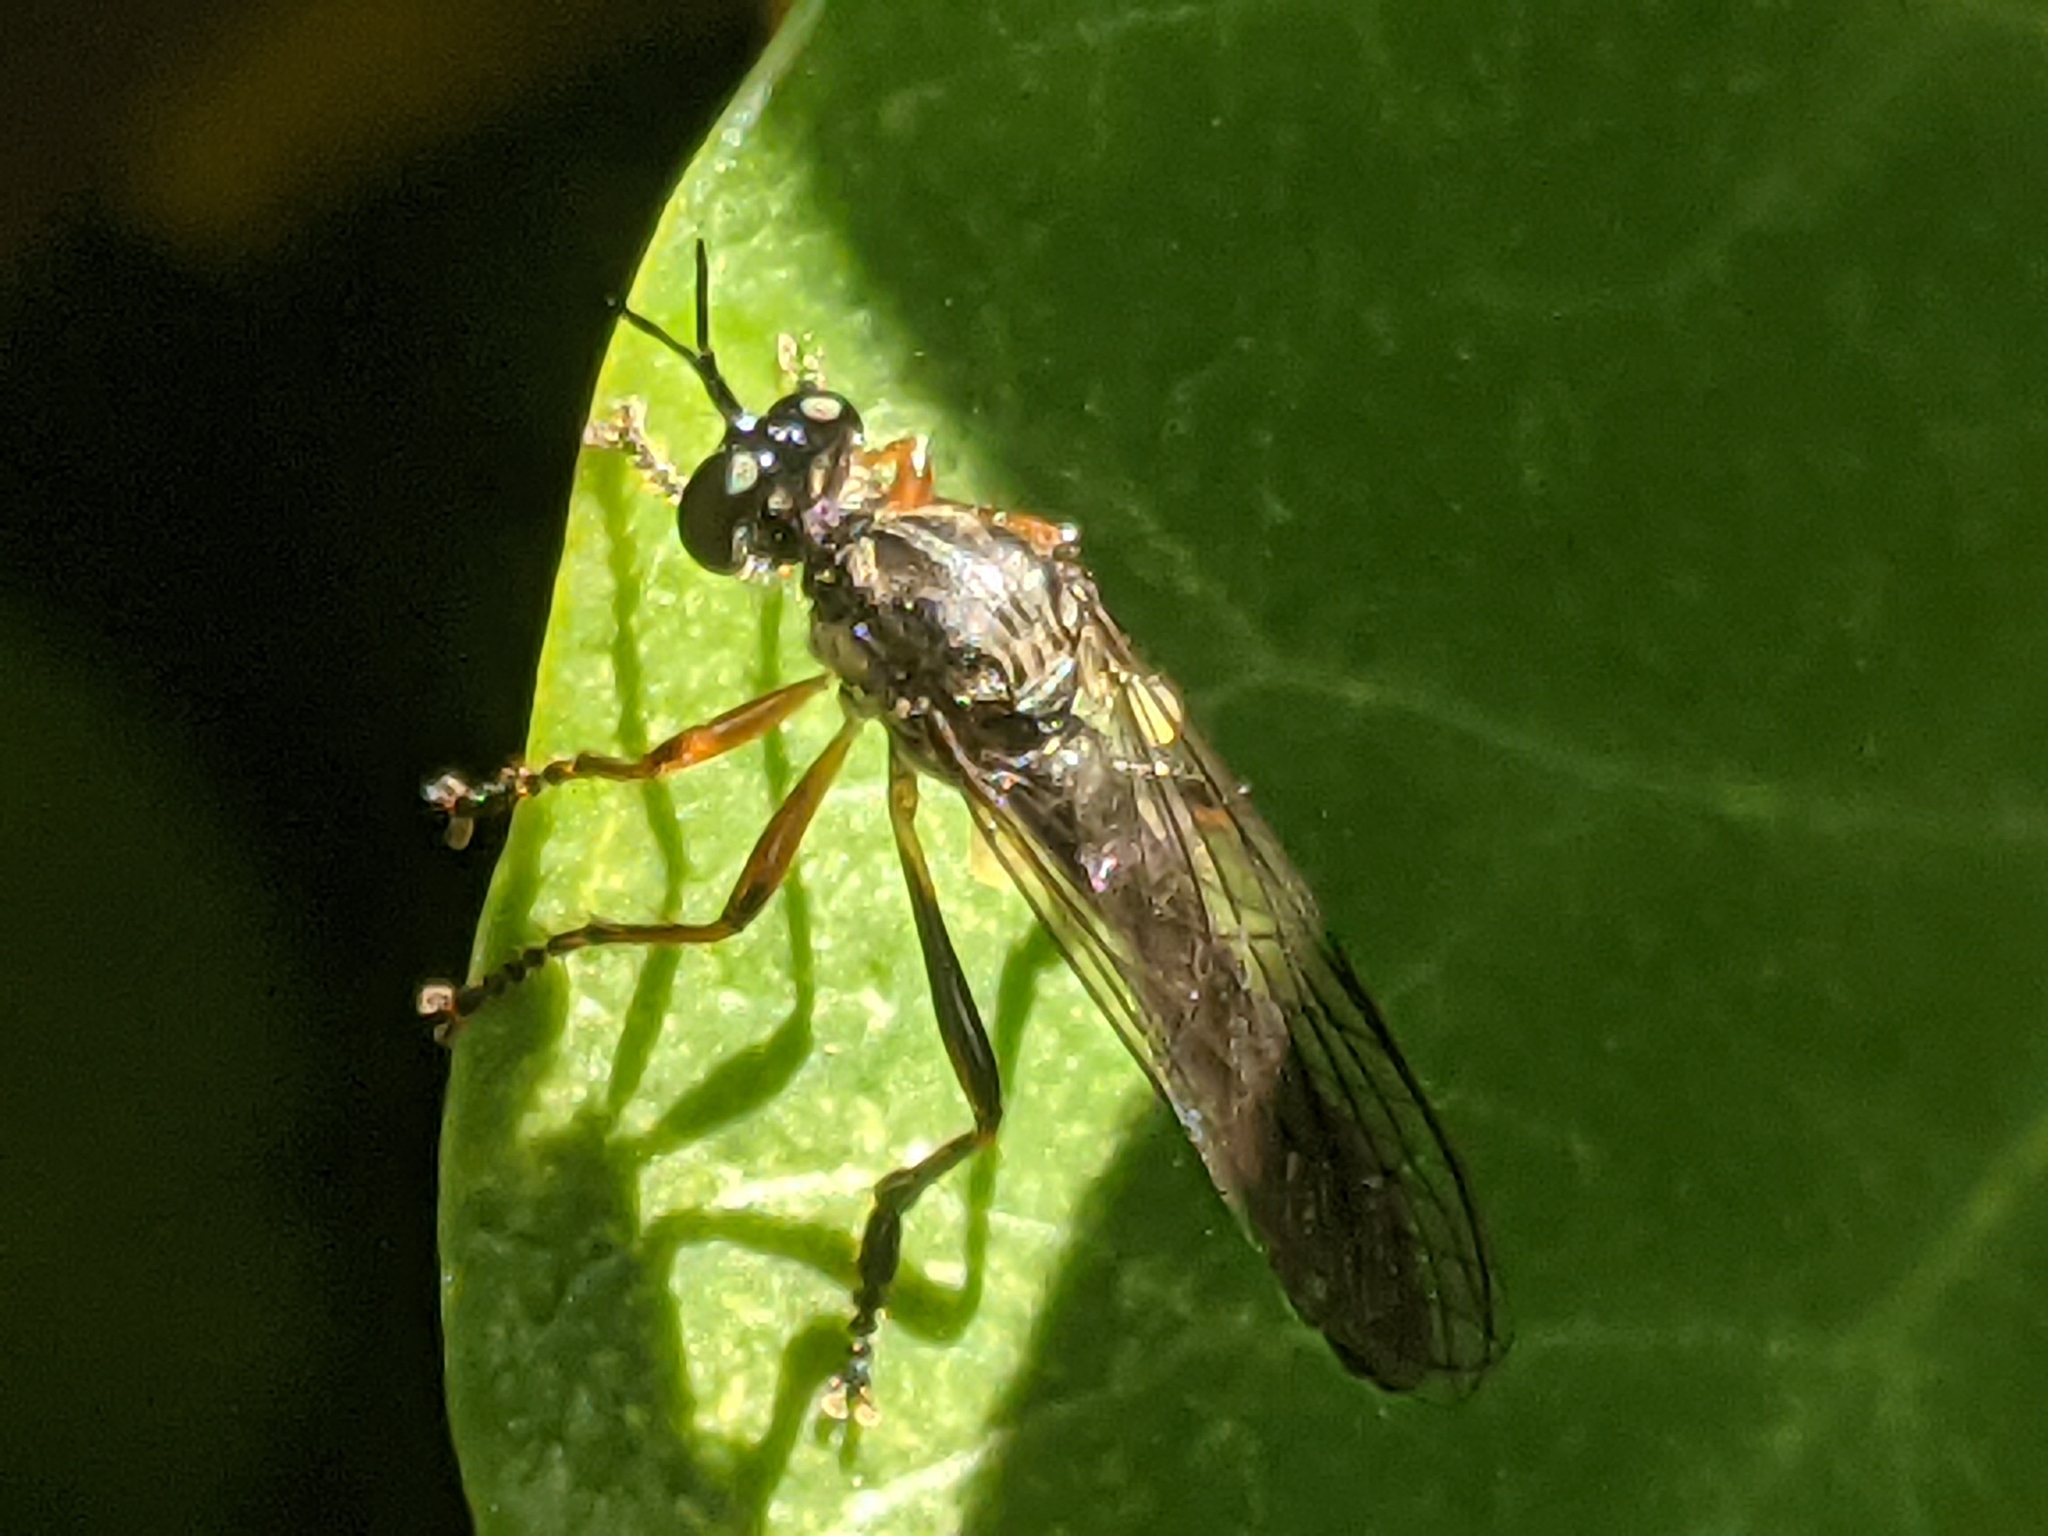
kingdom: Animalia
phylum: Arthropoda
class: Insecta
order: Diptera
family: Asilidae
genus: Dioctria
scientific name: Dioctria hyalipennis
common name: Stripe-legged robberfly
